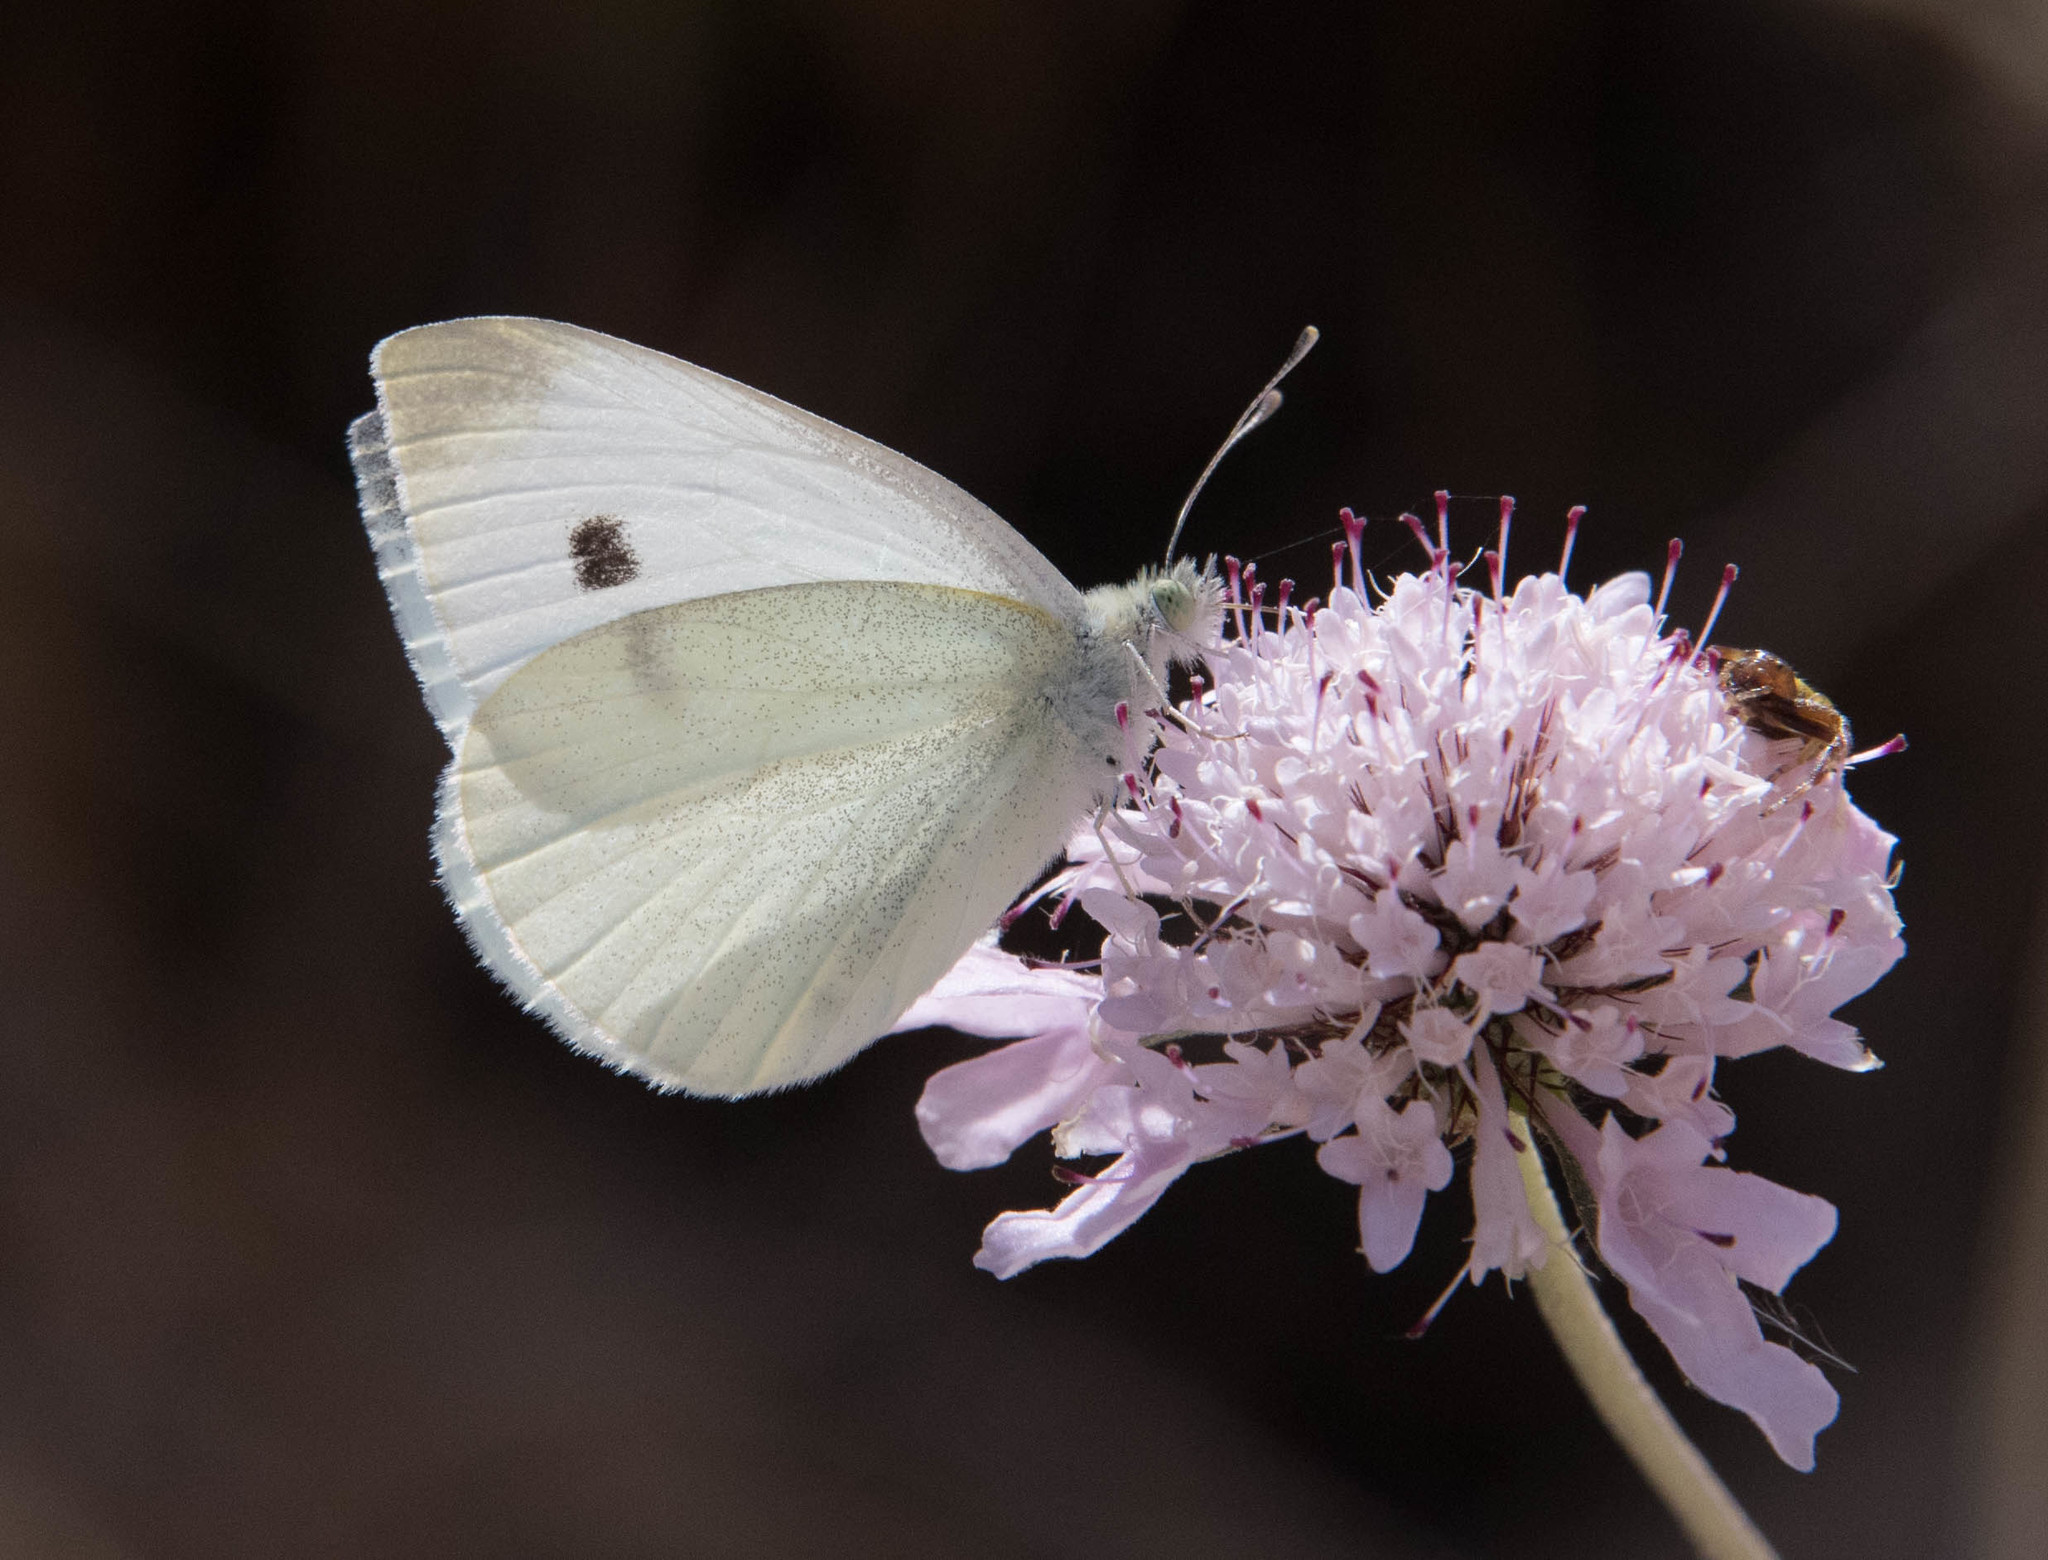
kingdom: Animalia
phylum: Arthropoda
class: Insecta
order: Lepidoptera
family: Pieridae
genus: Pieris
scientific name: Pieris rapae
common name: Small white
